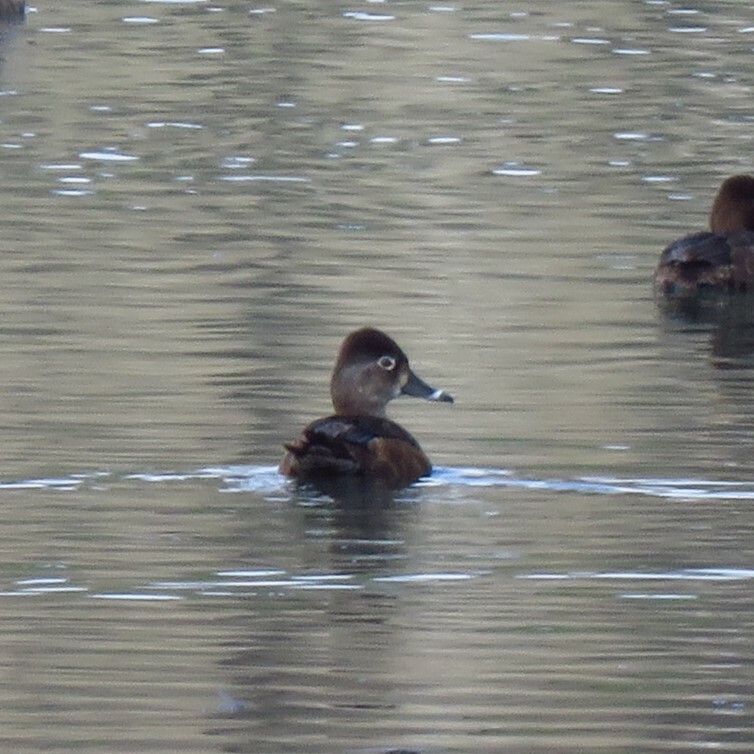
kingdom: Animalia
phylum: Chordata
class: Aves
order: Anseriformes
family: Anatidae
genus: Aythya
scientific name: Aythya collaris
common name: Ring-necked duck
